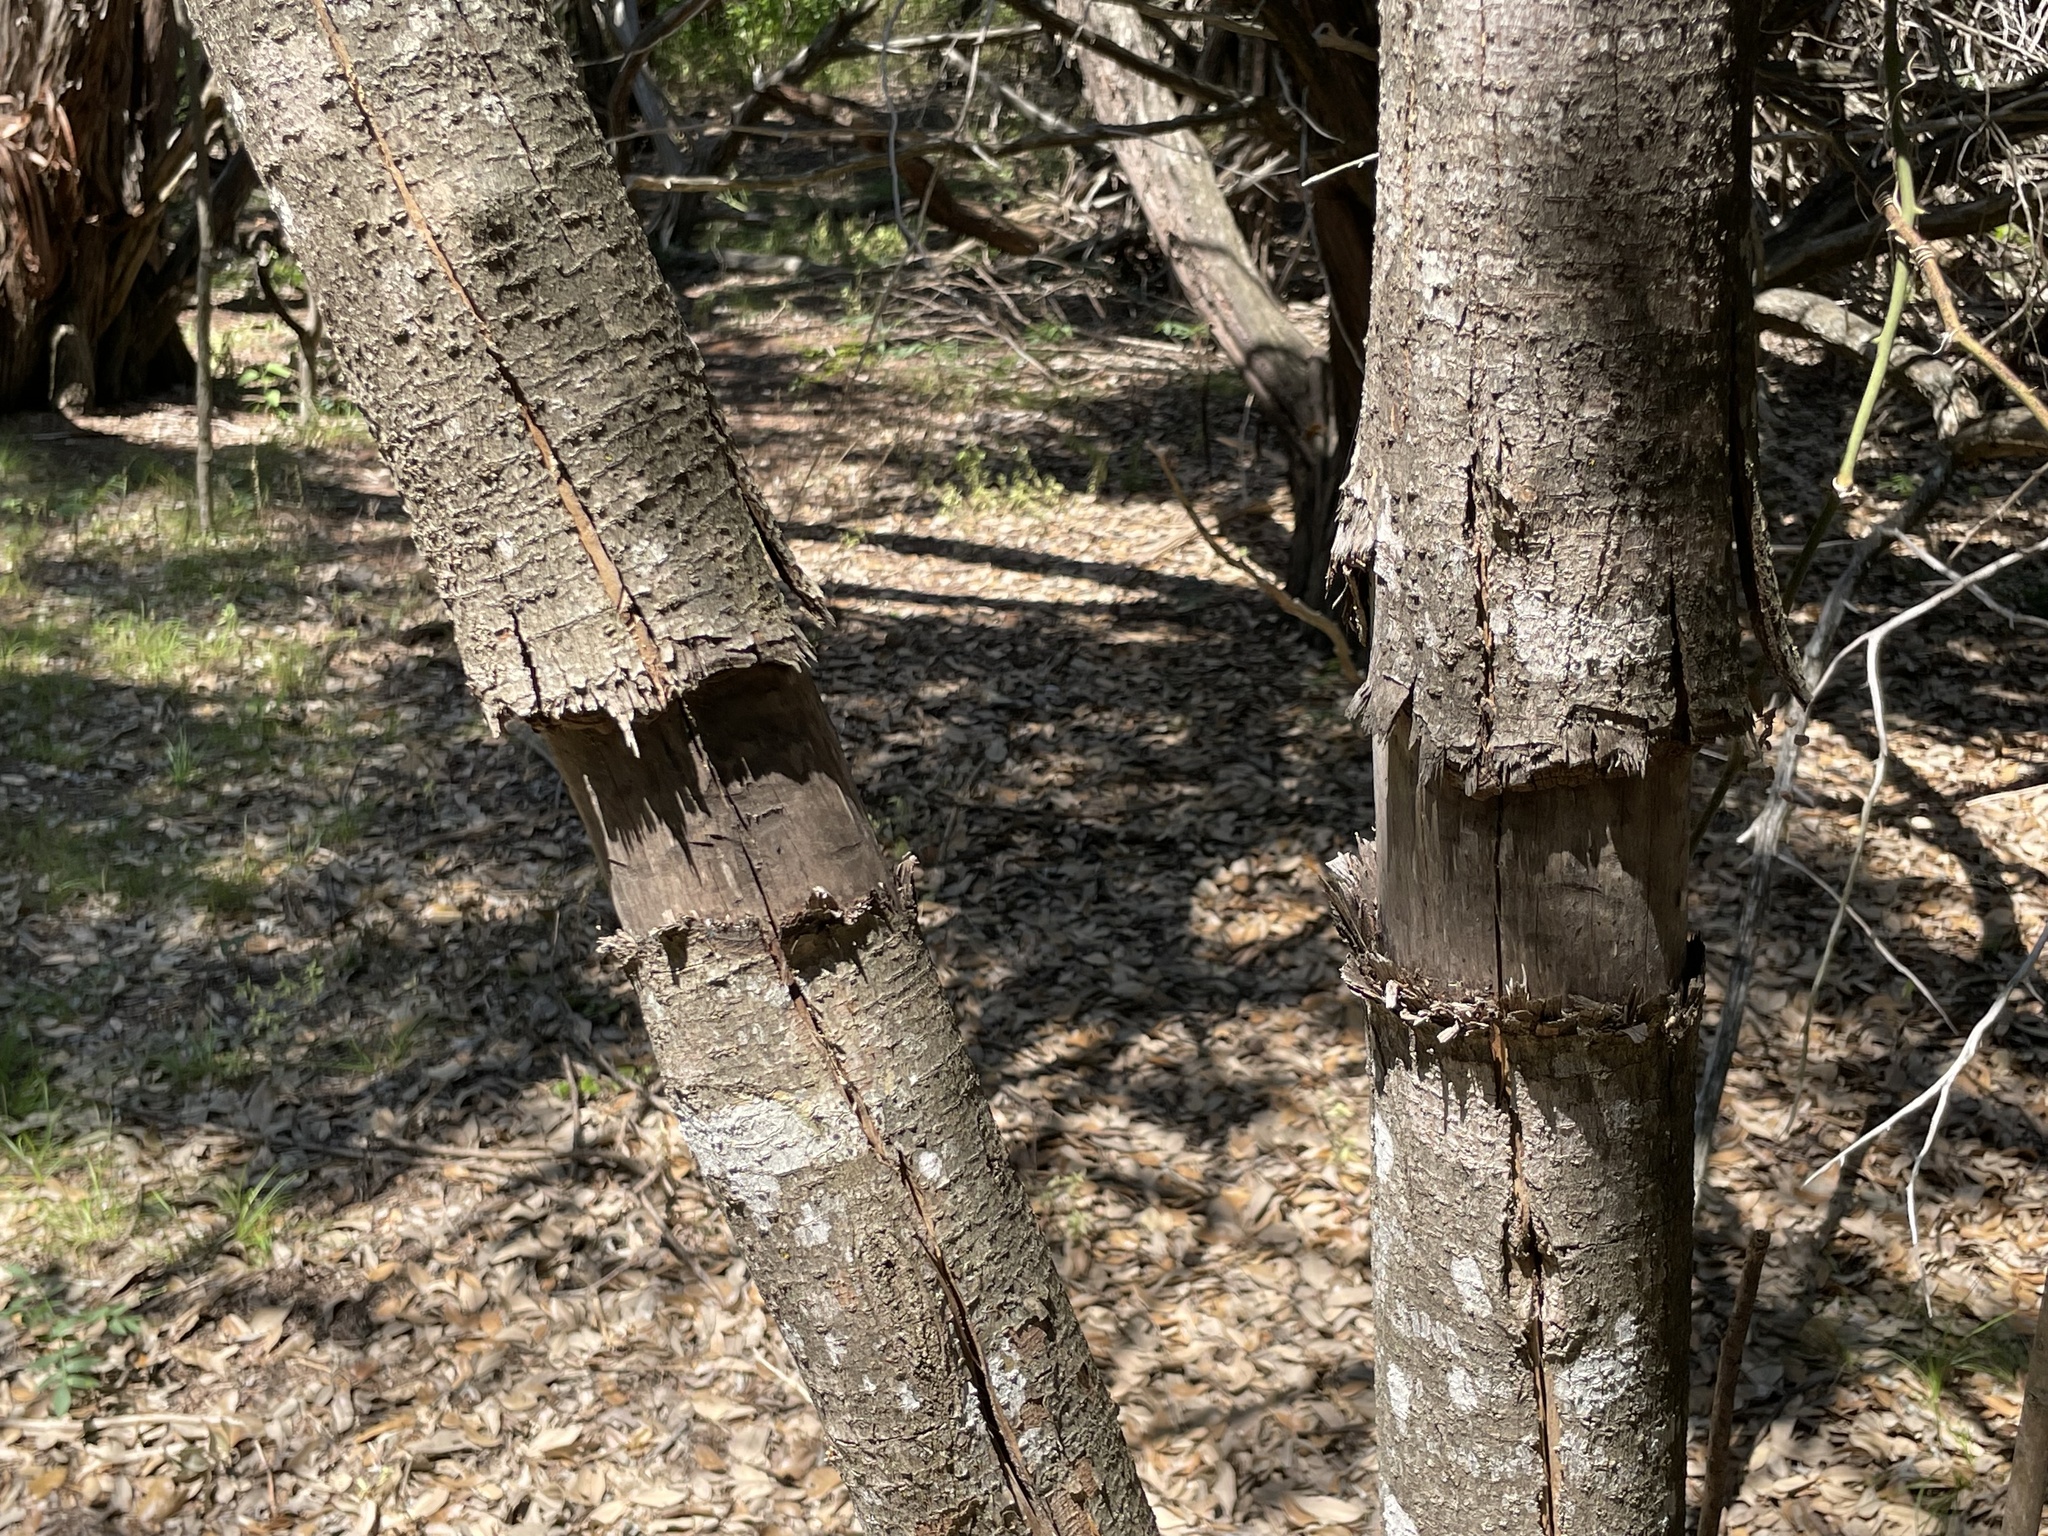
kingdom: Plantae
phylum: Tracheophyta
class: Magnoliopsida
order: Lamiales
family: Oleaceae
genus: Ligustrum
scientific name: Ligustrum lucidum
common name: Glossy privet
